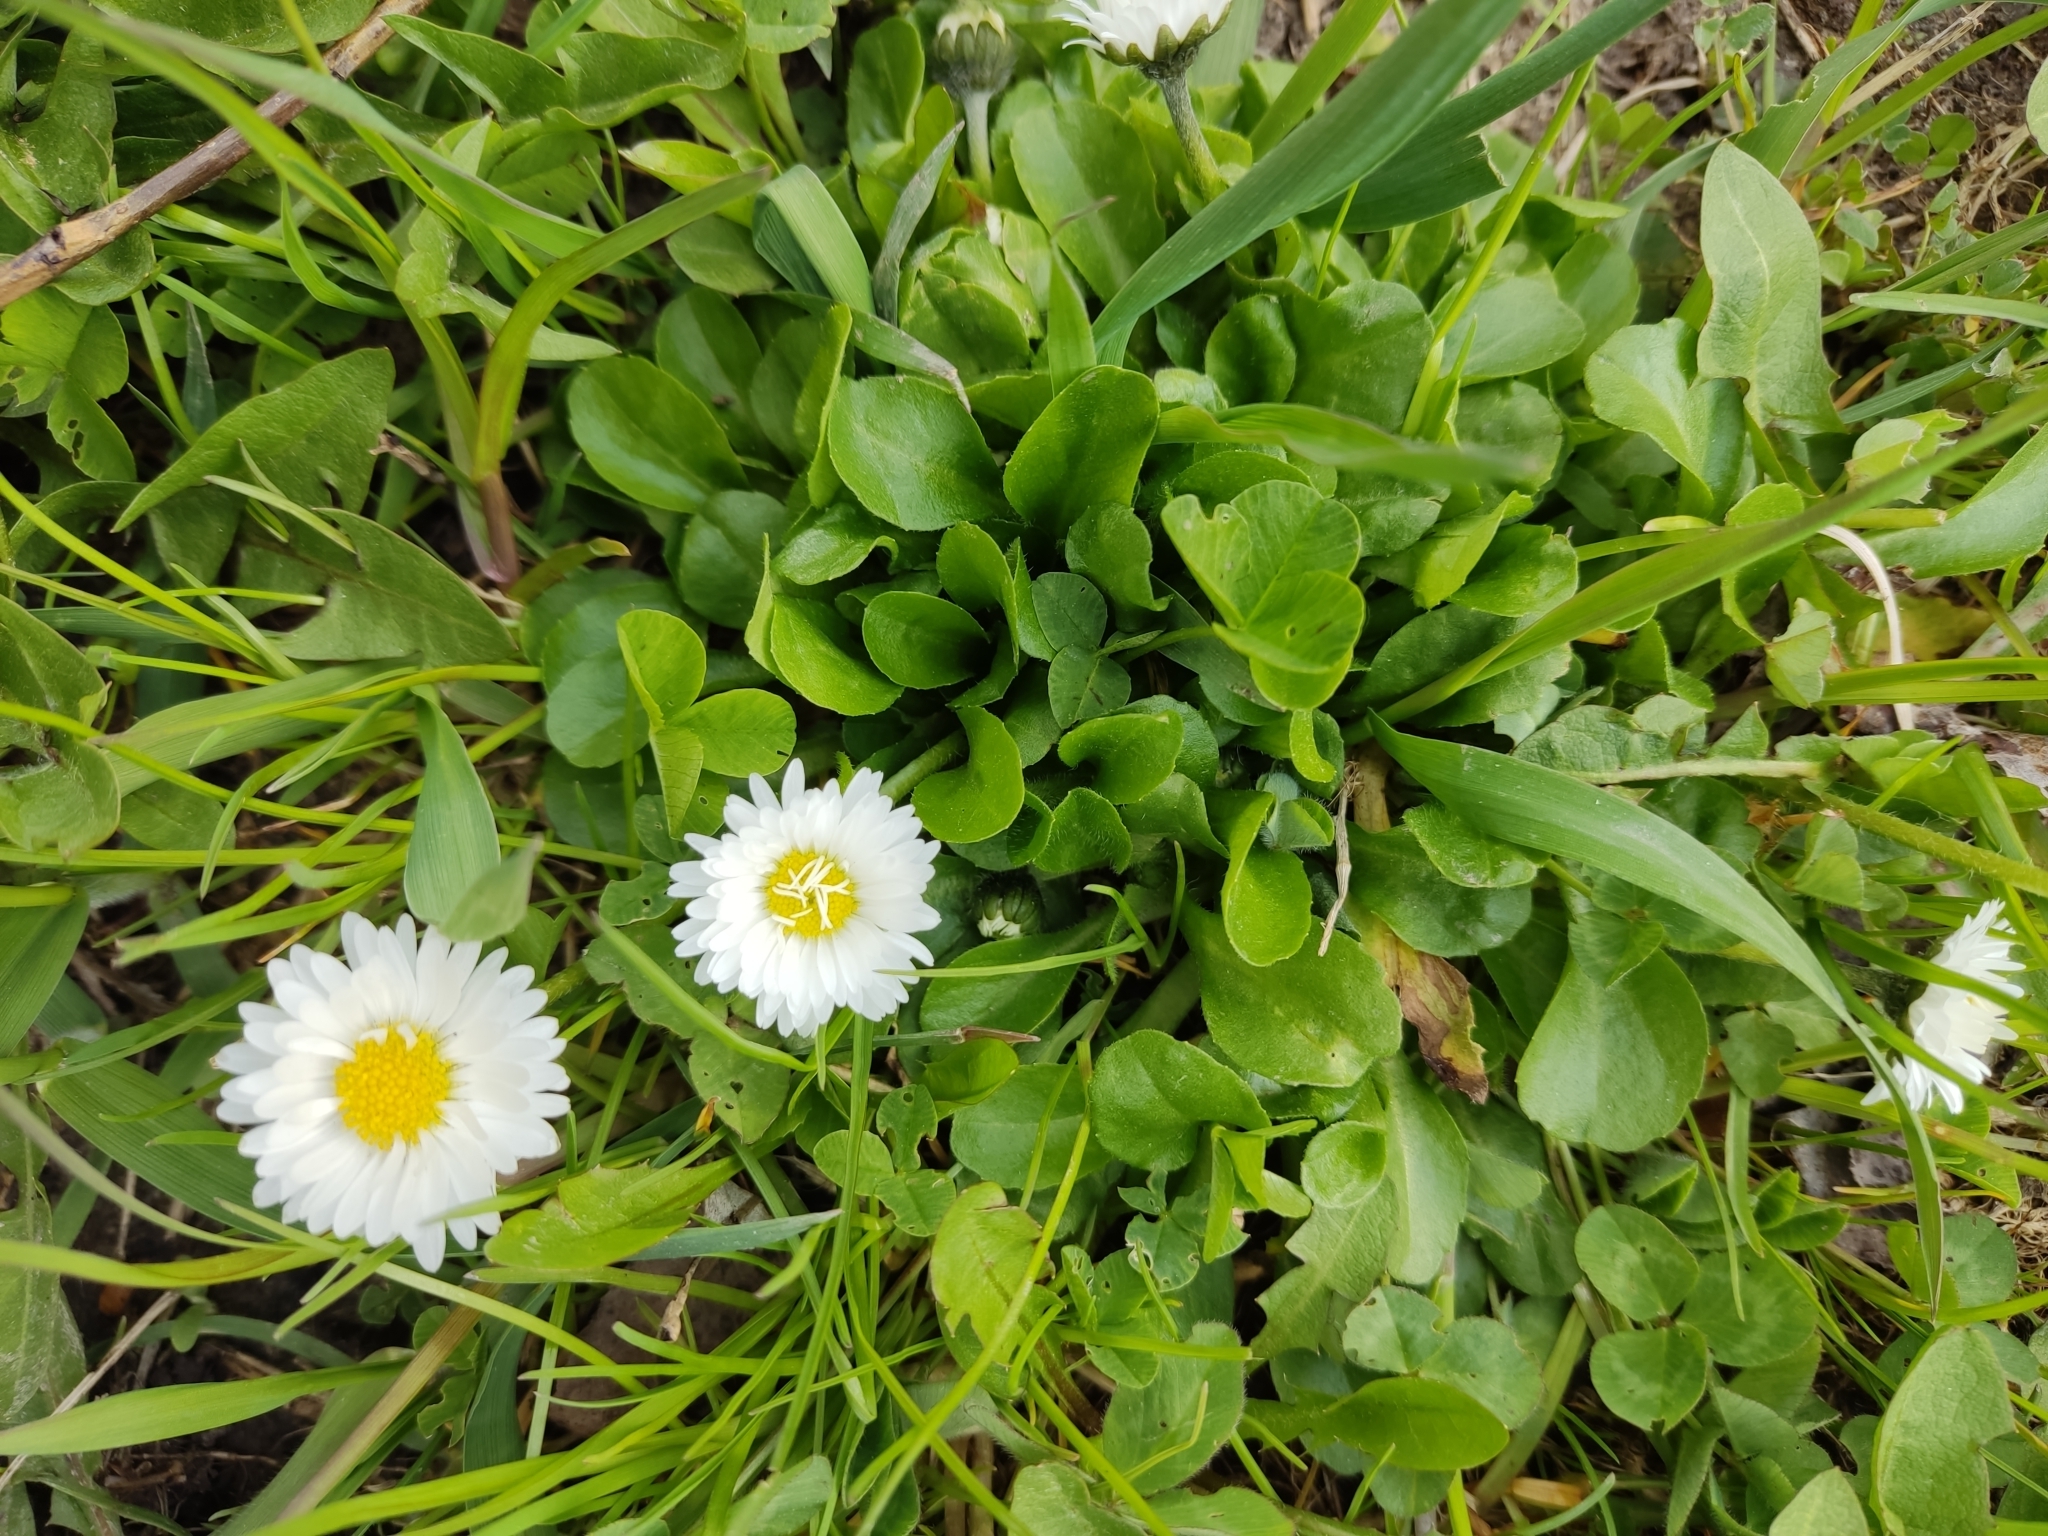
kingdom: Plantae
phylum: Tracheophyta
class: Magnoliopsida
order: Asterales
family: Asteraceae
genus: Bellis
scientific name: Bellis perennis
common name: Lawndaisy
